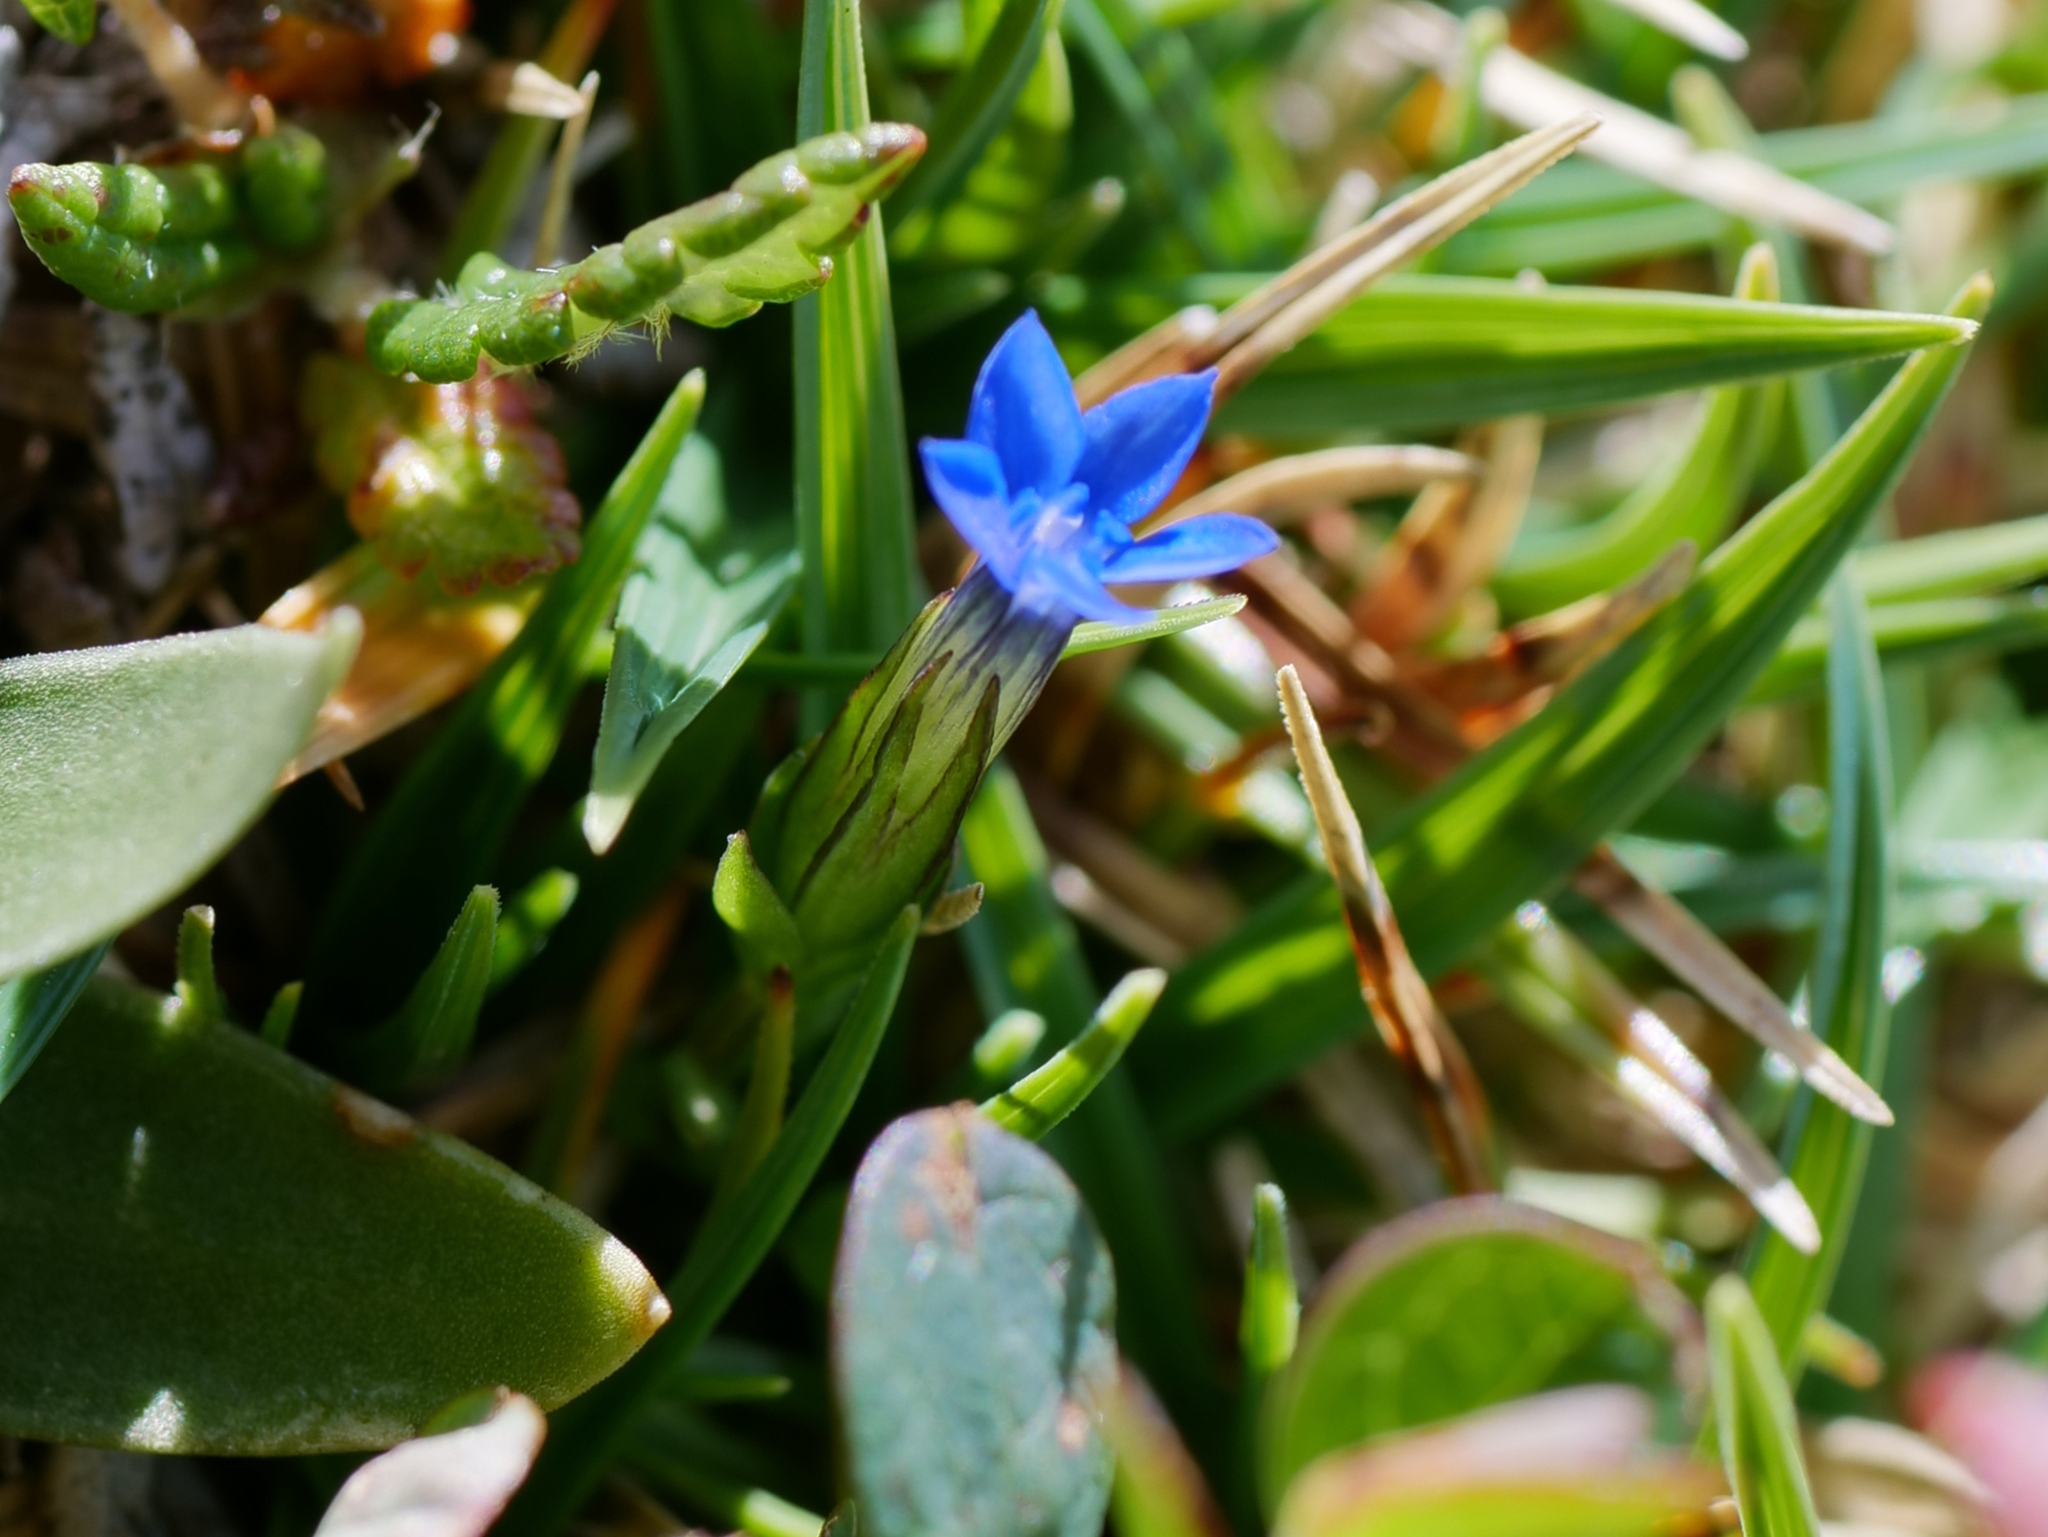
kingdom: Plantae
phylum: Tracheophyta
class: Magnoliopsida
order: Gentianales
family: Gentianaceae
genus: Gentiana
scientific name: Gentiana nivalis
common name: Alpine gentian
